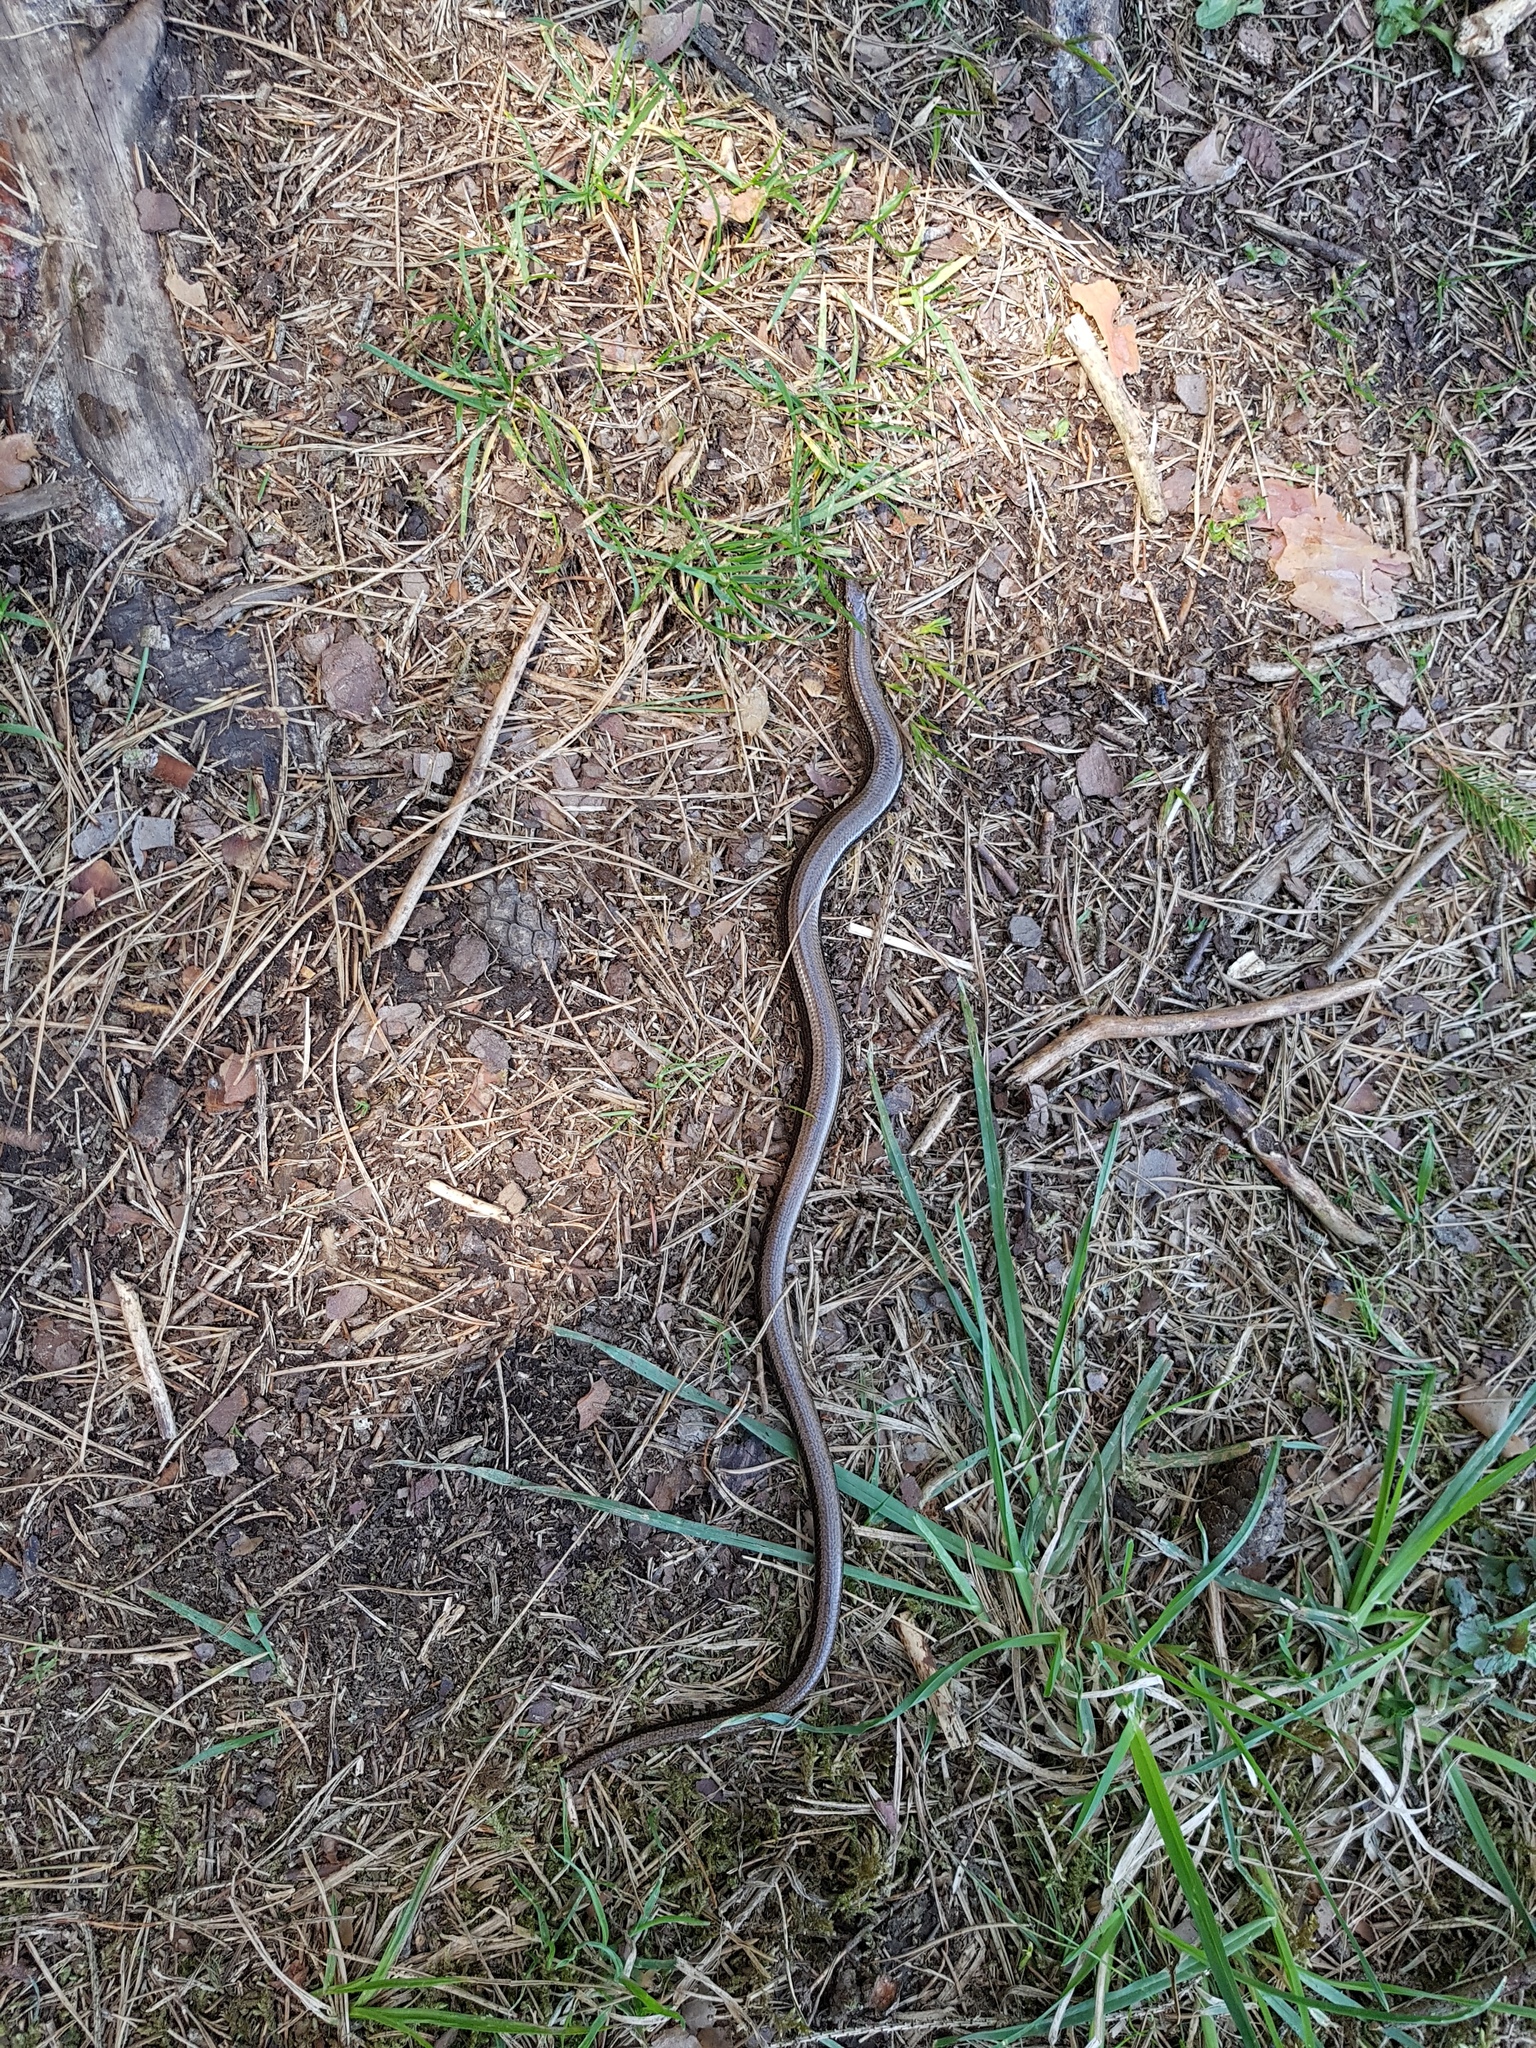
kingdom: Animalia
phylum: Chordata
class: Squamata
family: Anguidae
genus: Anguis
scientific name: Anguis fragilis
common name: Slow worm
